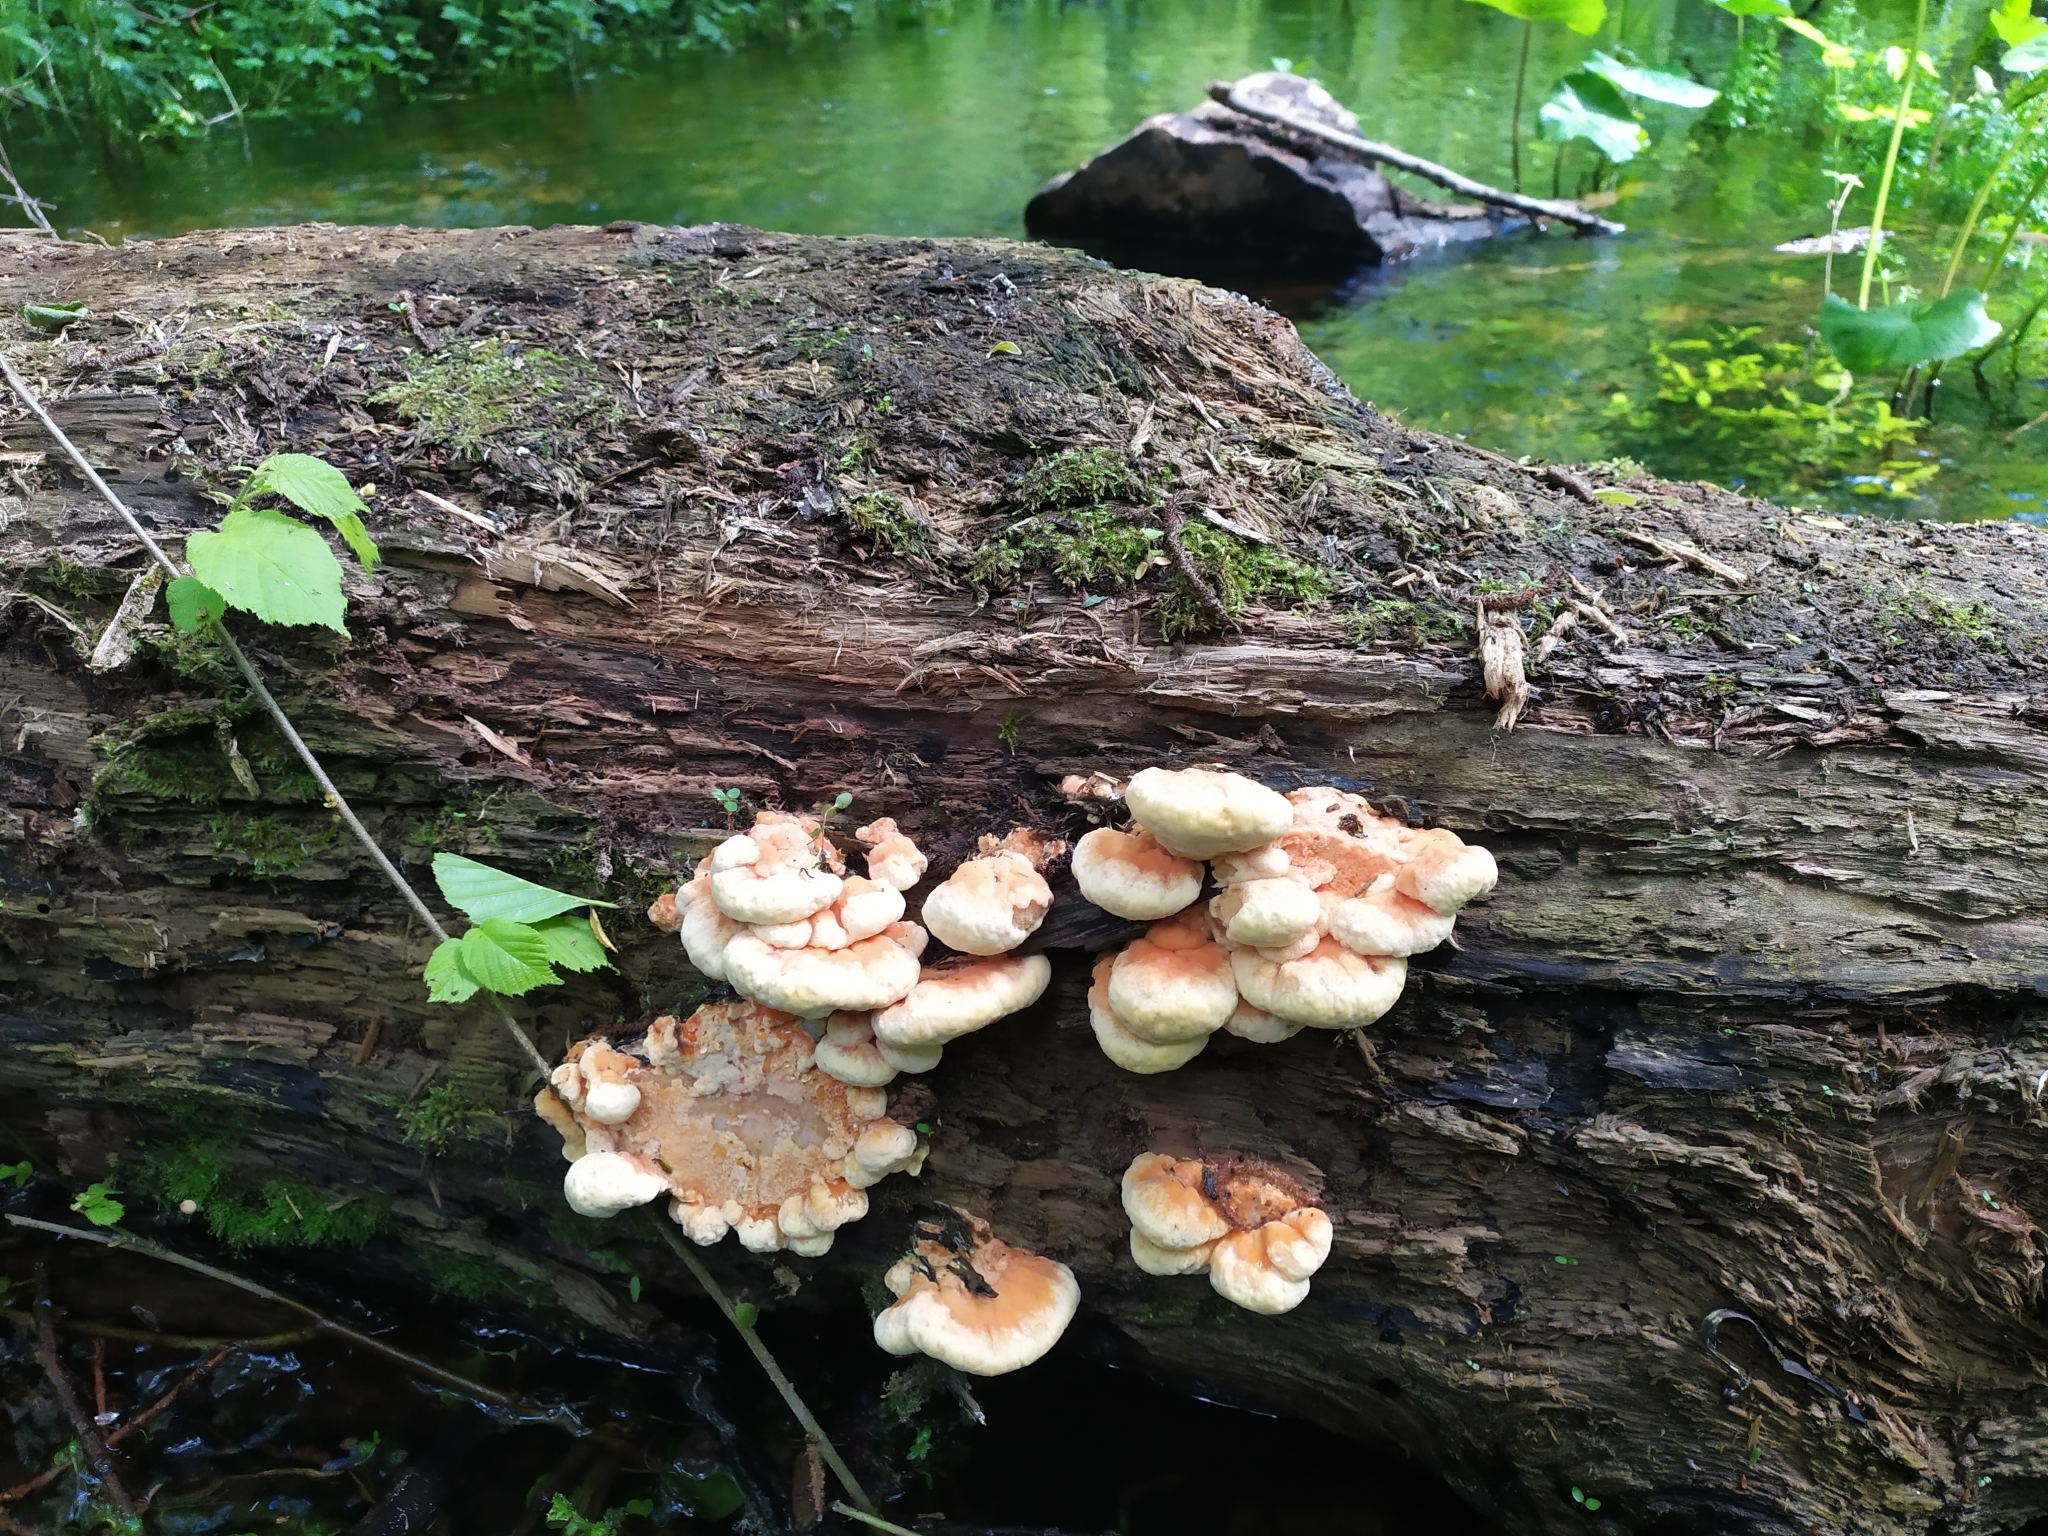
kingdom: Fungi
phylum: Basidiomycota
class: Agaricomycetes
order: Polyporales
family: Laetiporaceae
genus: Laetiporus
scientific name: Laetiporus sulphureus
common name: Chicken of the woods
